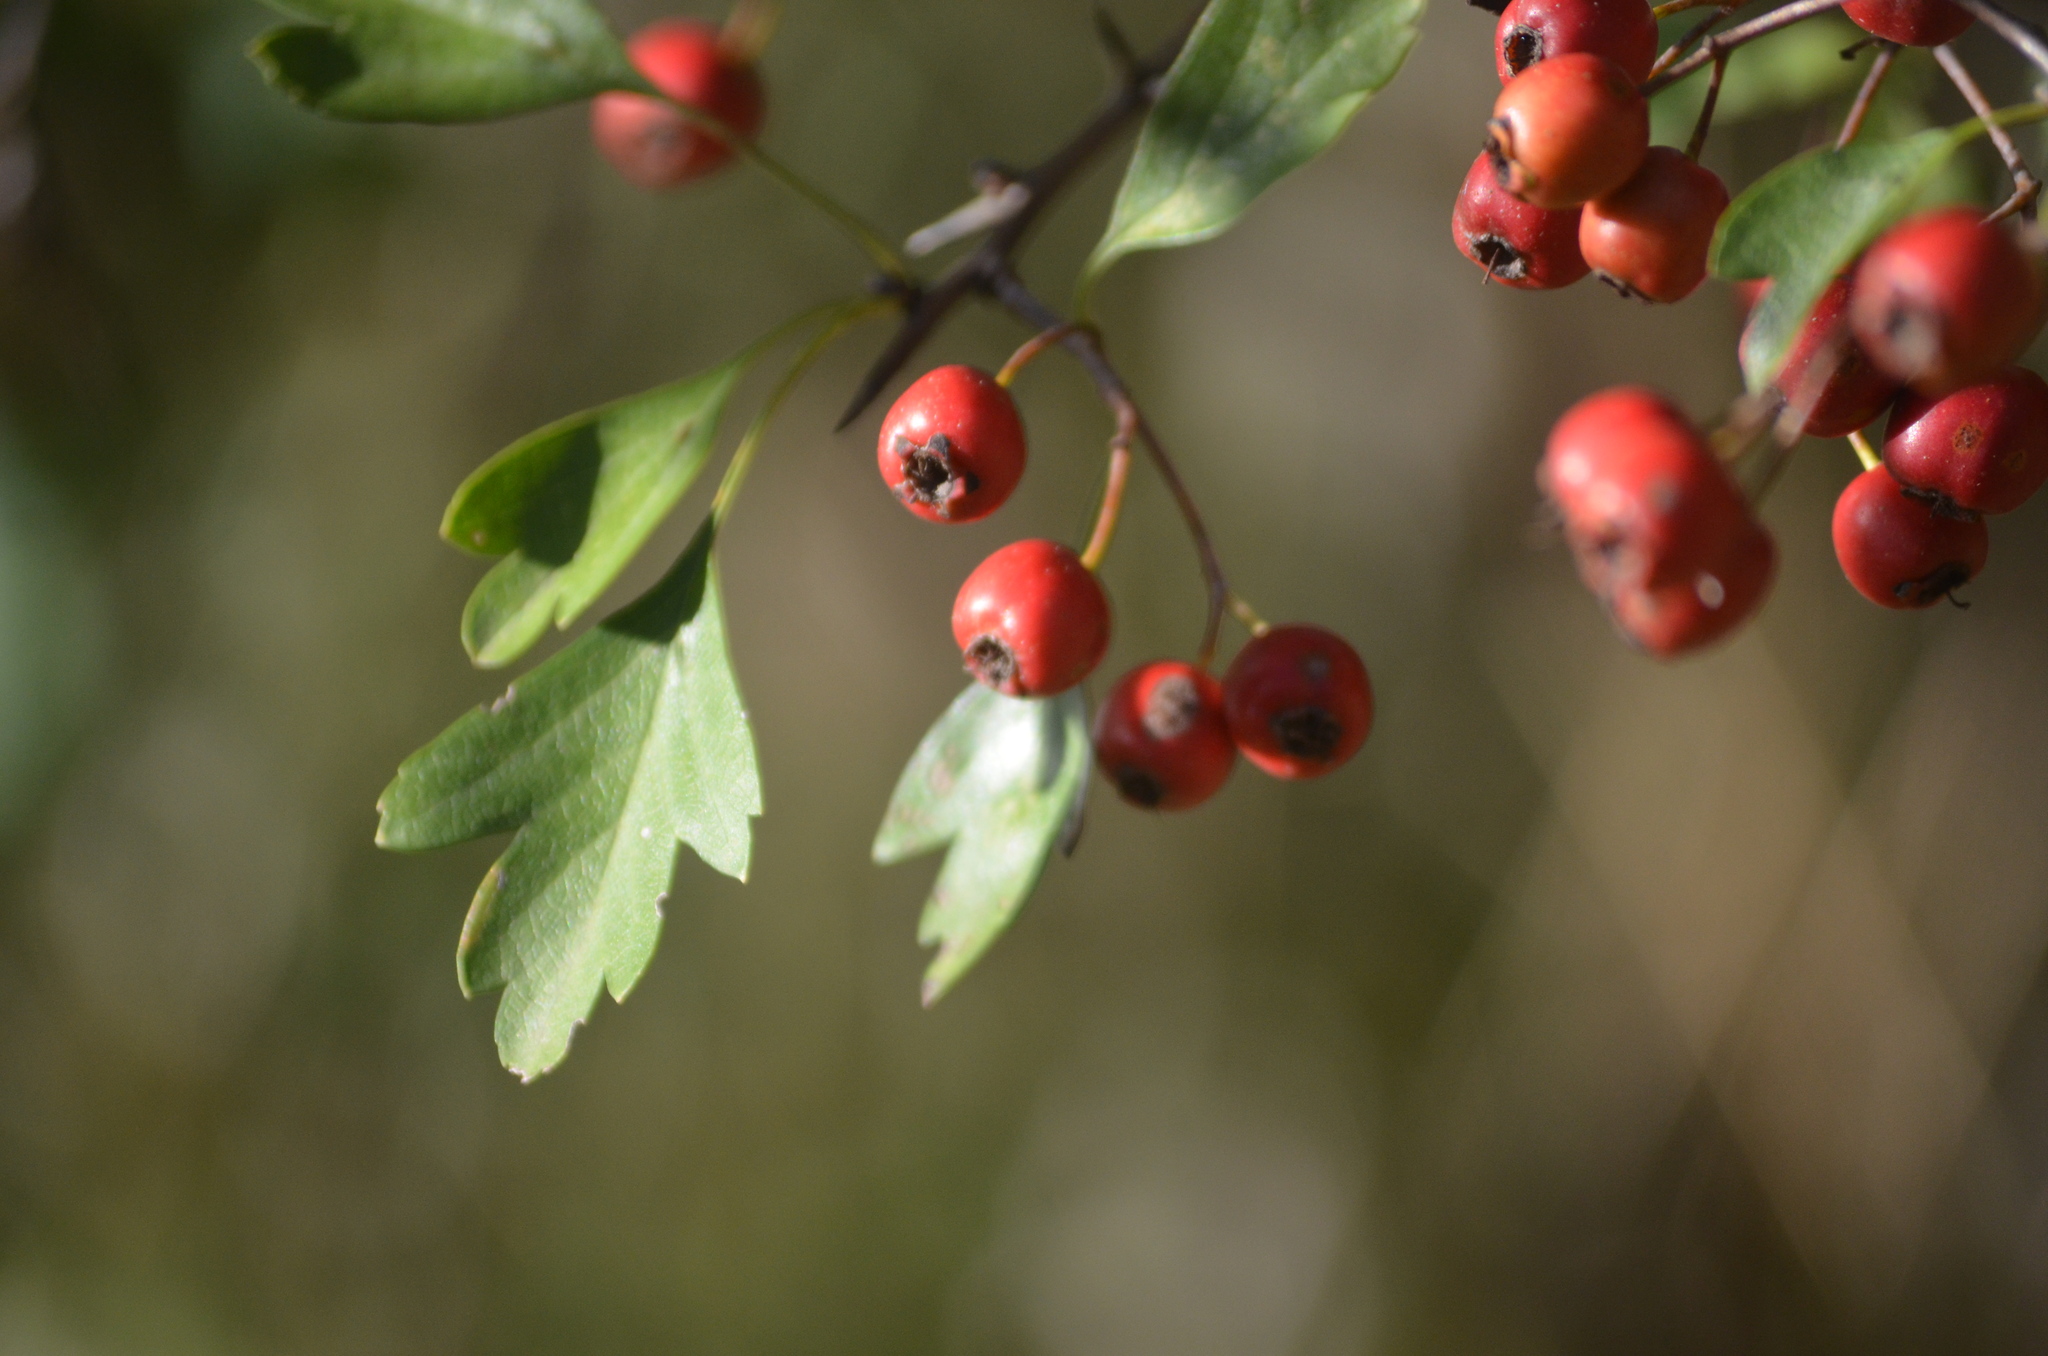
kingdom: Plantae
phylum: Tracheophyta
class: Magnoliopsida
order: Rosales
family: Rosaceae
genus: Crataegus
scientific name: Crataegus monogyna
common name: Hawthorn
